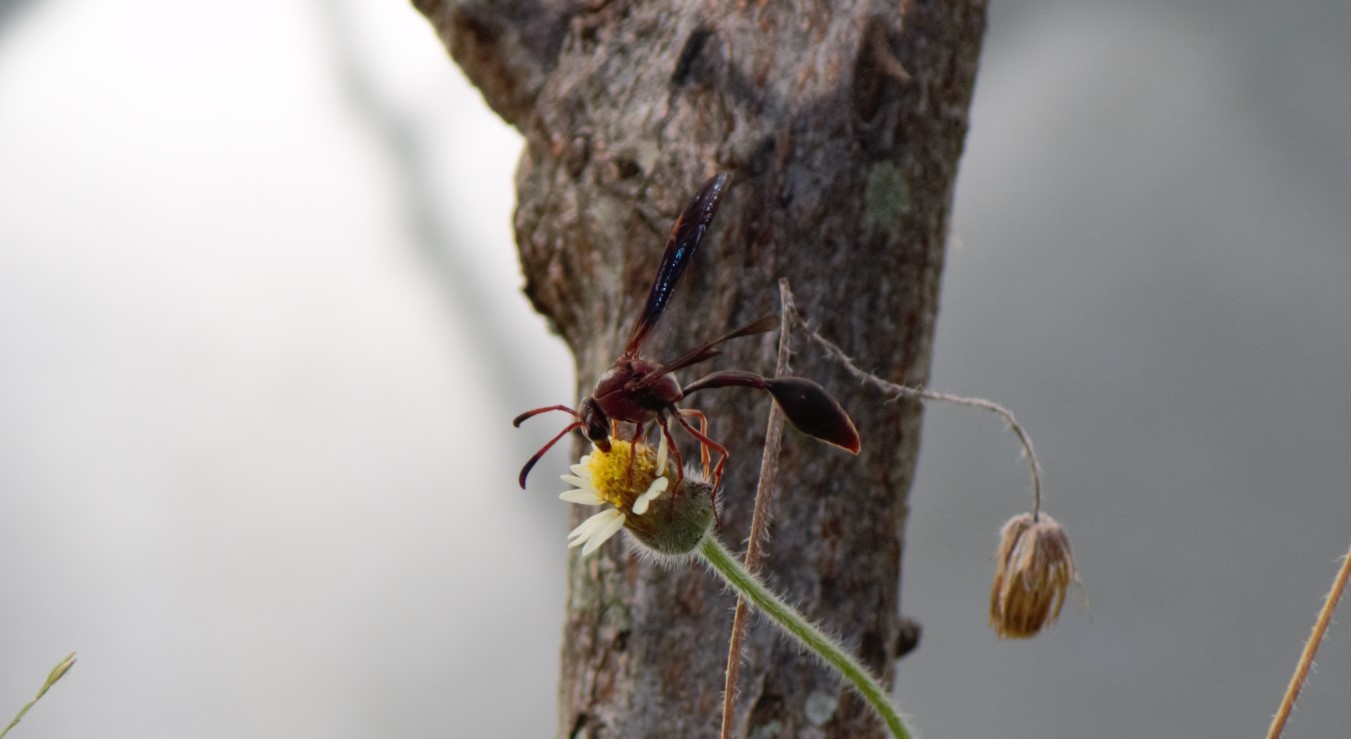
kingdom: Animalia
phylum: Arthropoda
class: Insecta
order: Hymenoptera
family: Eumenidae
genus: Zeta
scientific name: Zeta argillaceum
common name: Potter wasp
